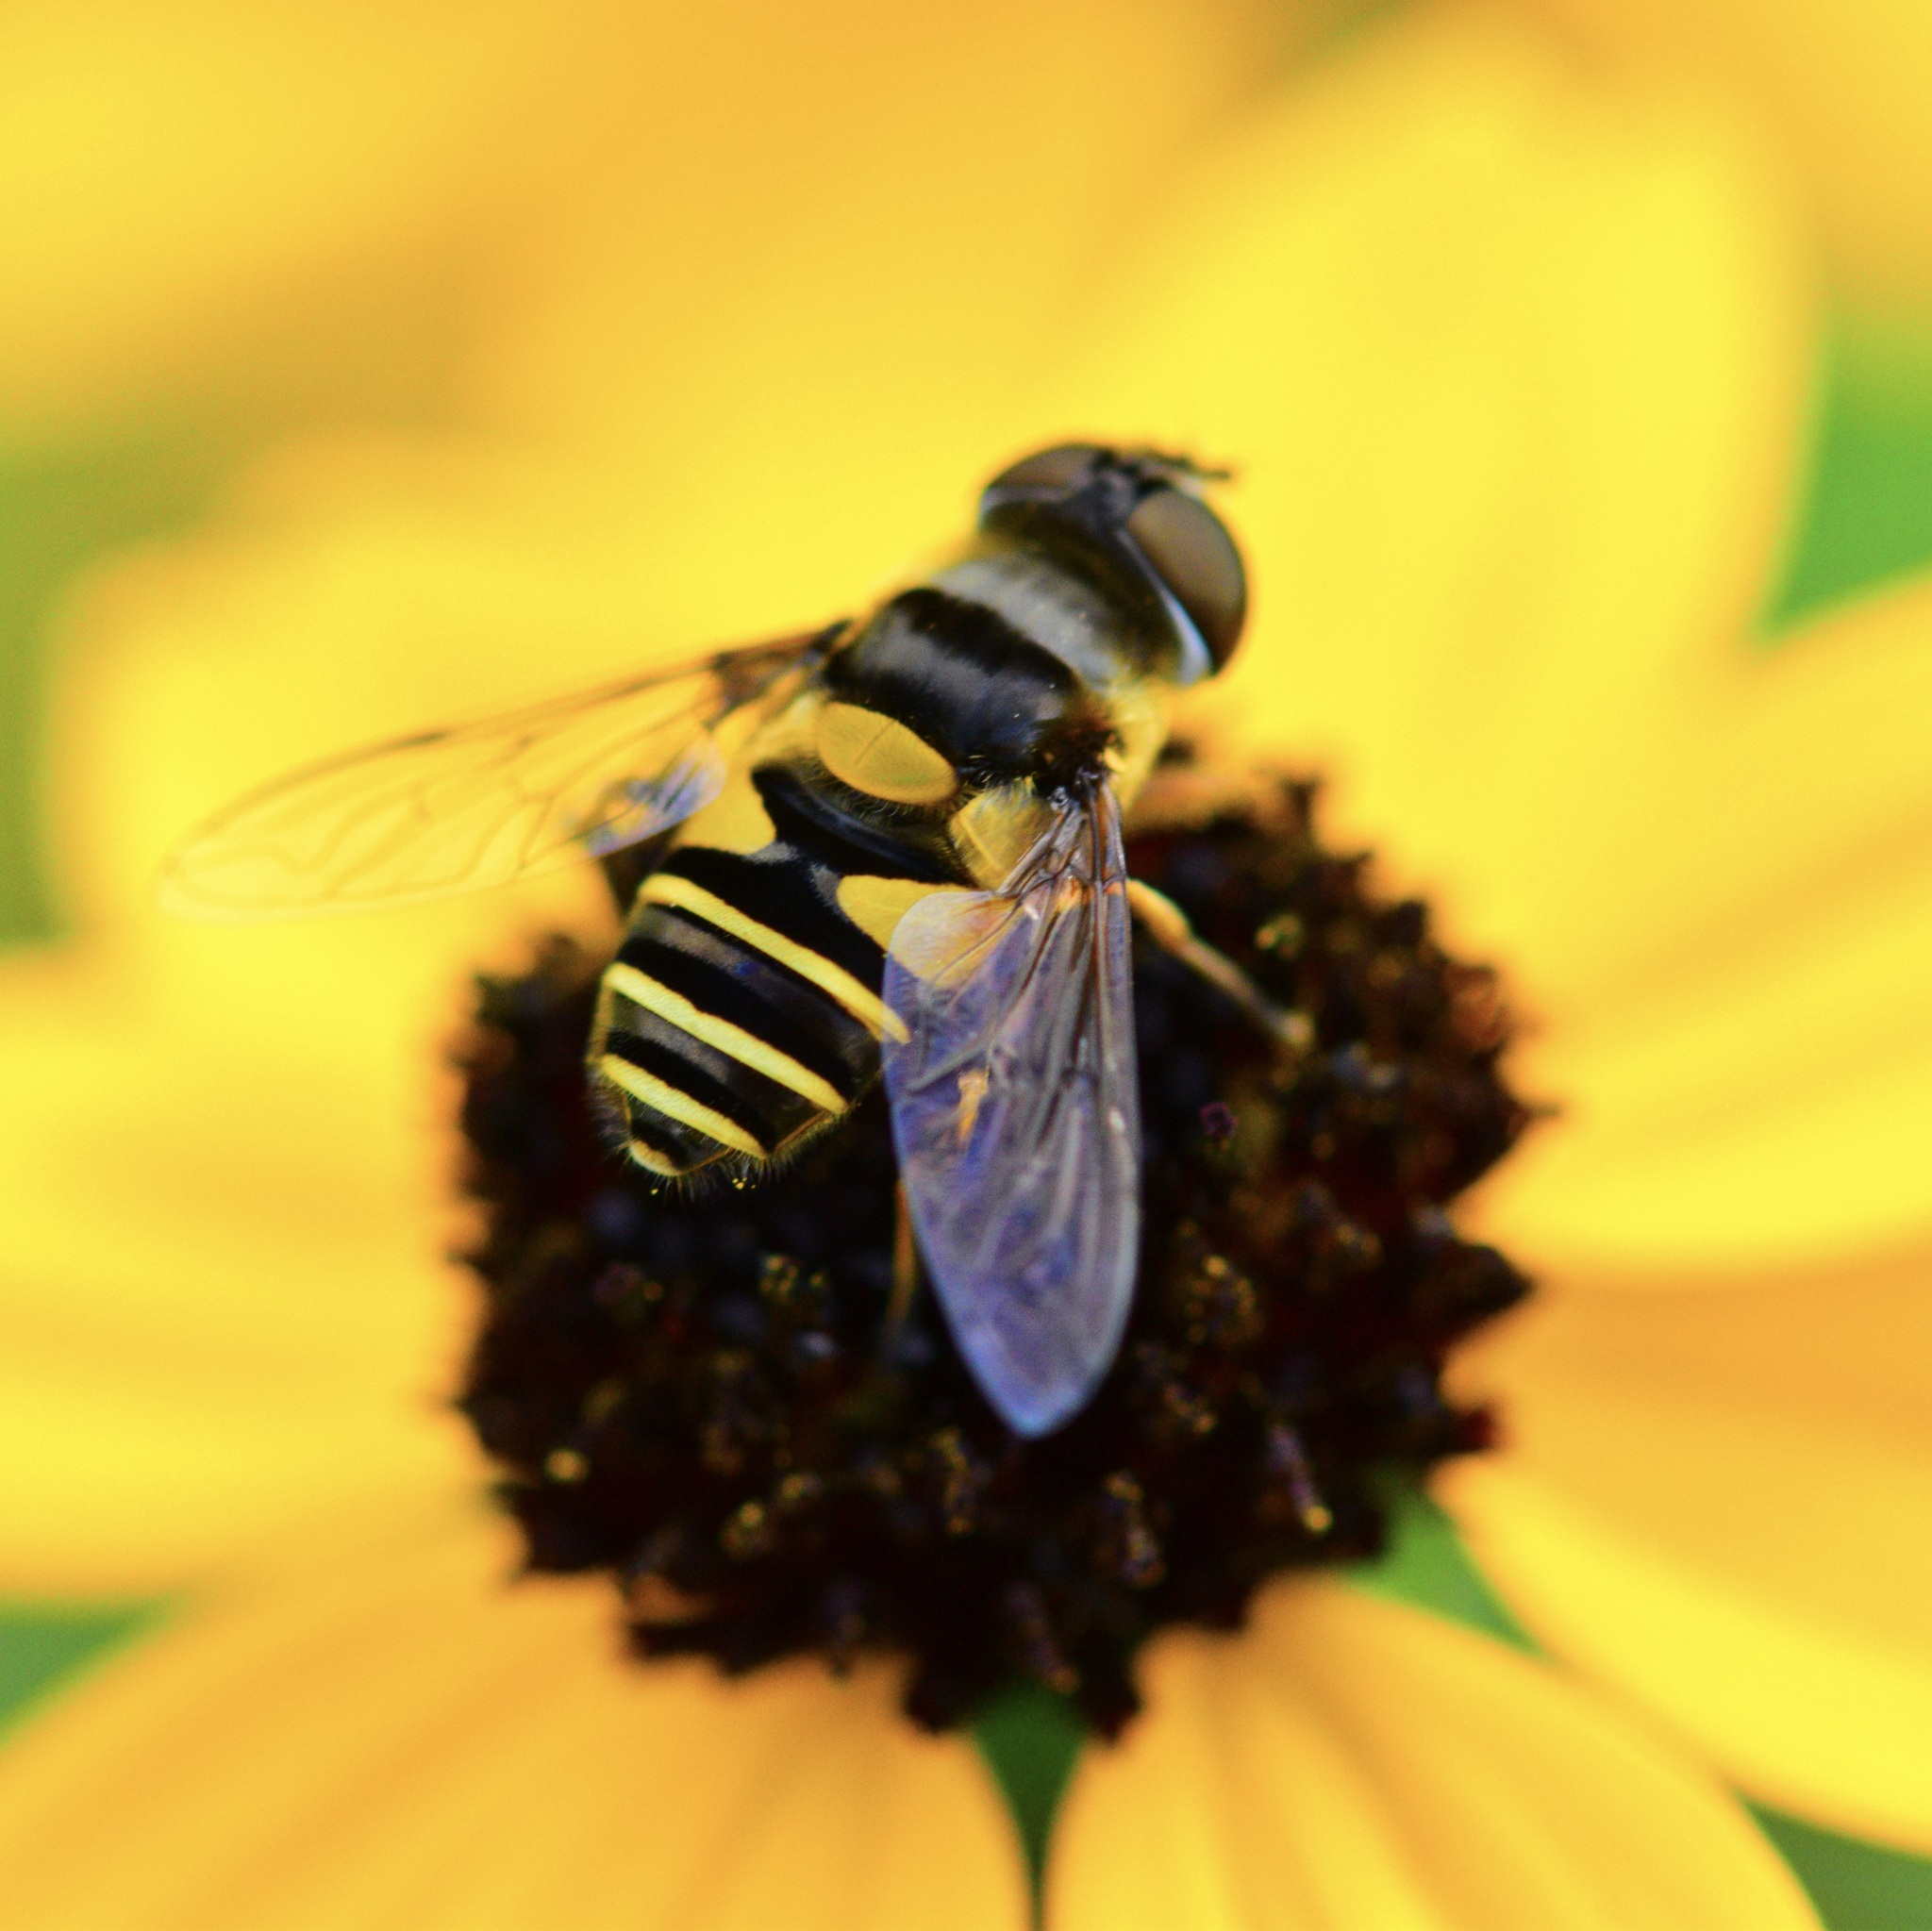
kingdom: Animalia
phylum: Arthropoda
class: Insecta
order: Diptera
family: Syrphidae
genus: Eristalis
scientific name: Eristalis transversa
